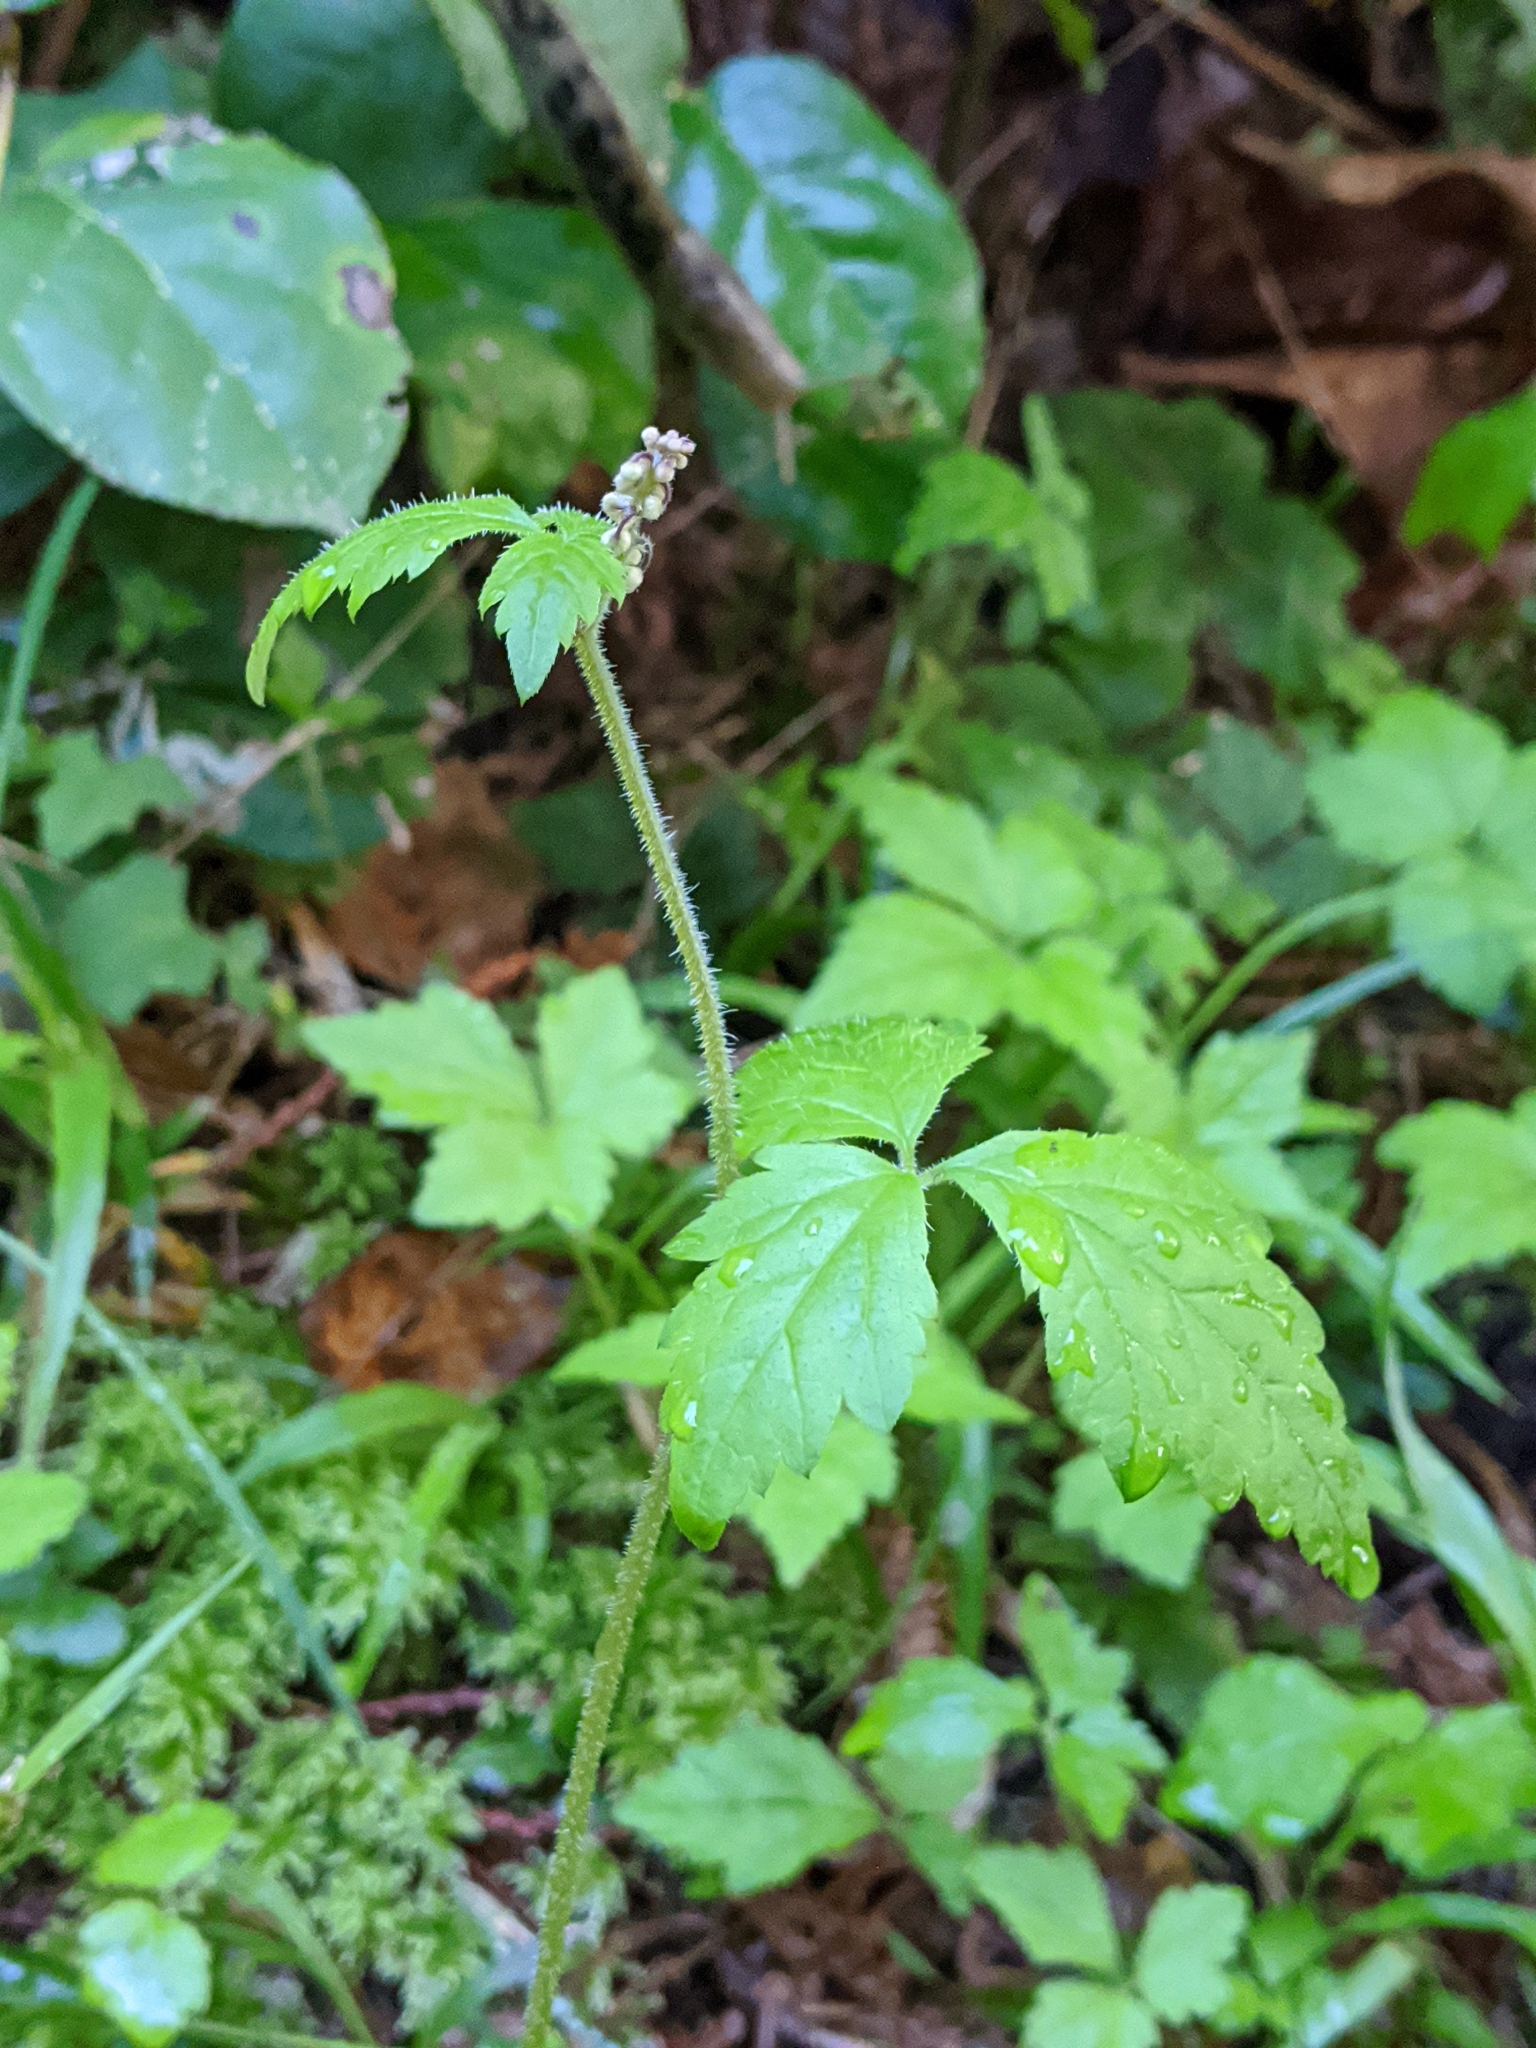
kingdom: Plantae
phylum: Tracheophyta
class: Magnoliopsida
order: Saxifragales
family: Saxifragaceae
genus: Tiarella
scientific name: Tiarella trifoliata
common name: Sugar-scoop
